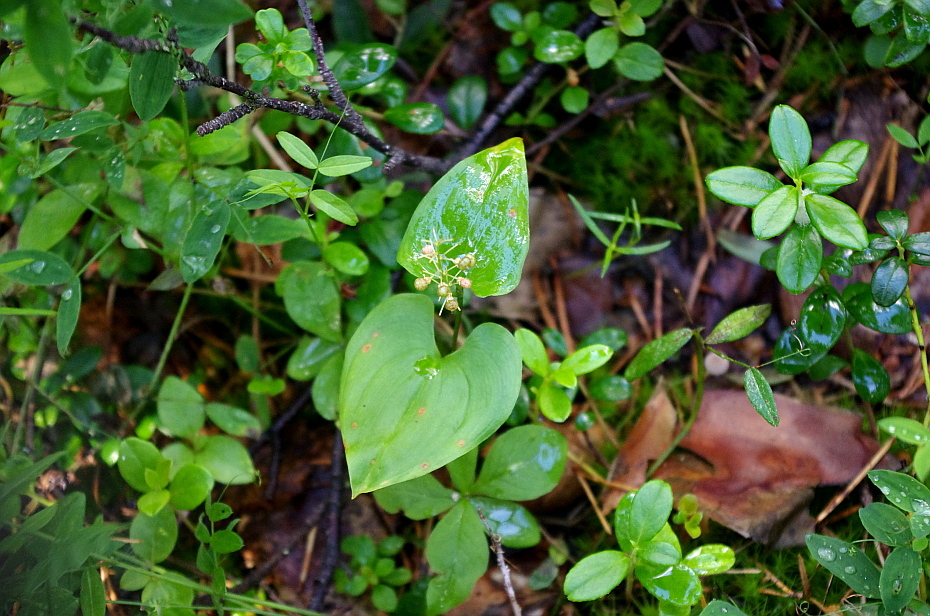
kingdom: Plantae
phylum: Tracheophyta
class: Liliopsida
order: Asparagales
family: Asparagaceae
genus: Maianthemum
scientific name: Maianthemum bifolium
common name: May lily
